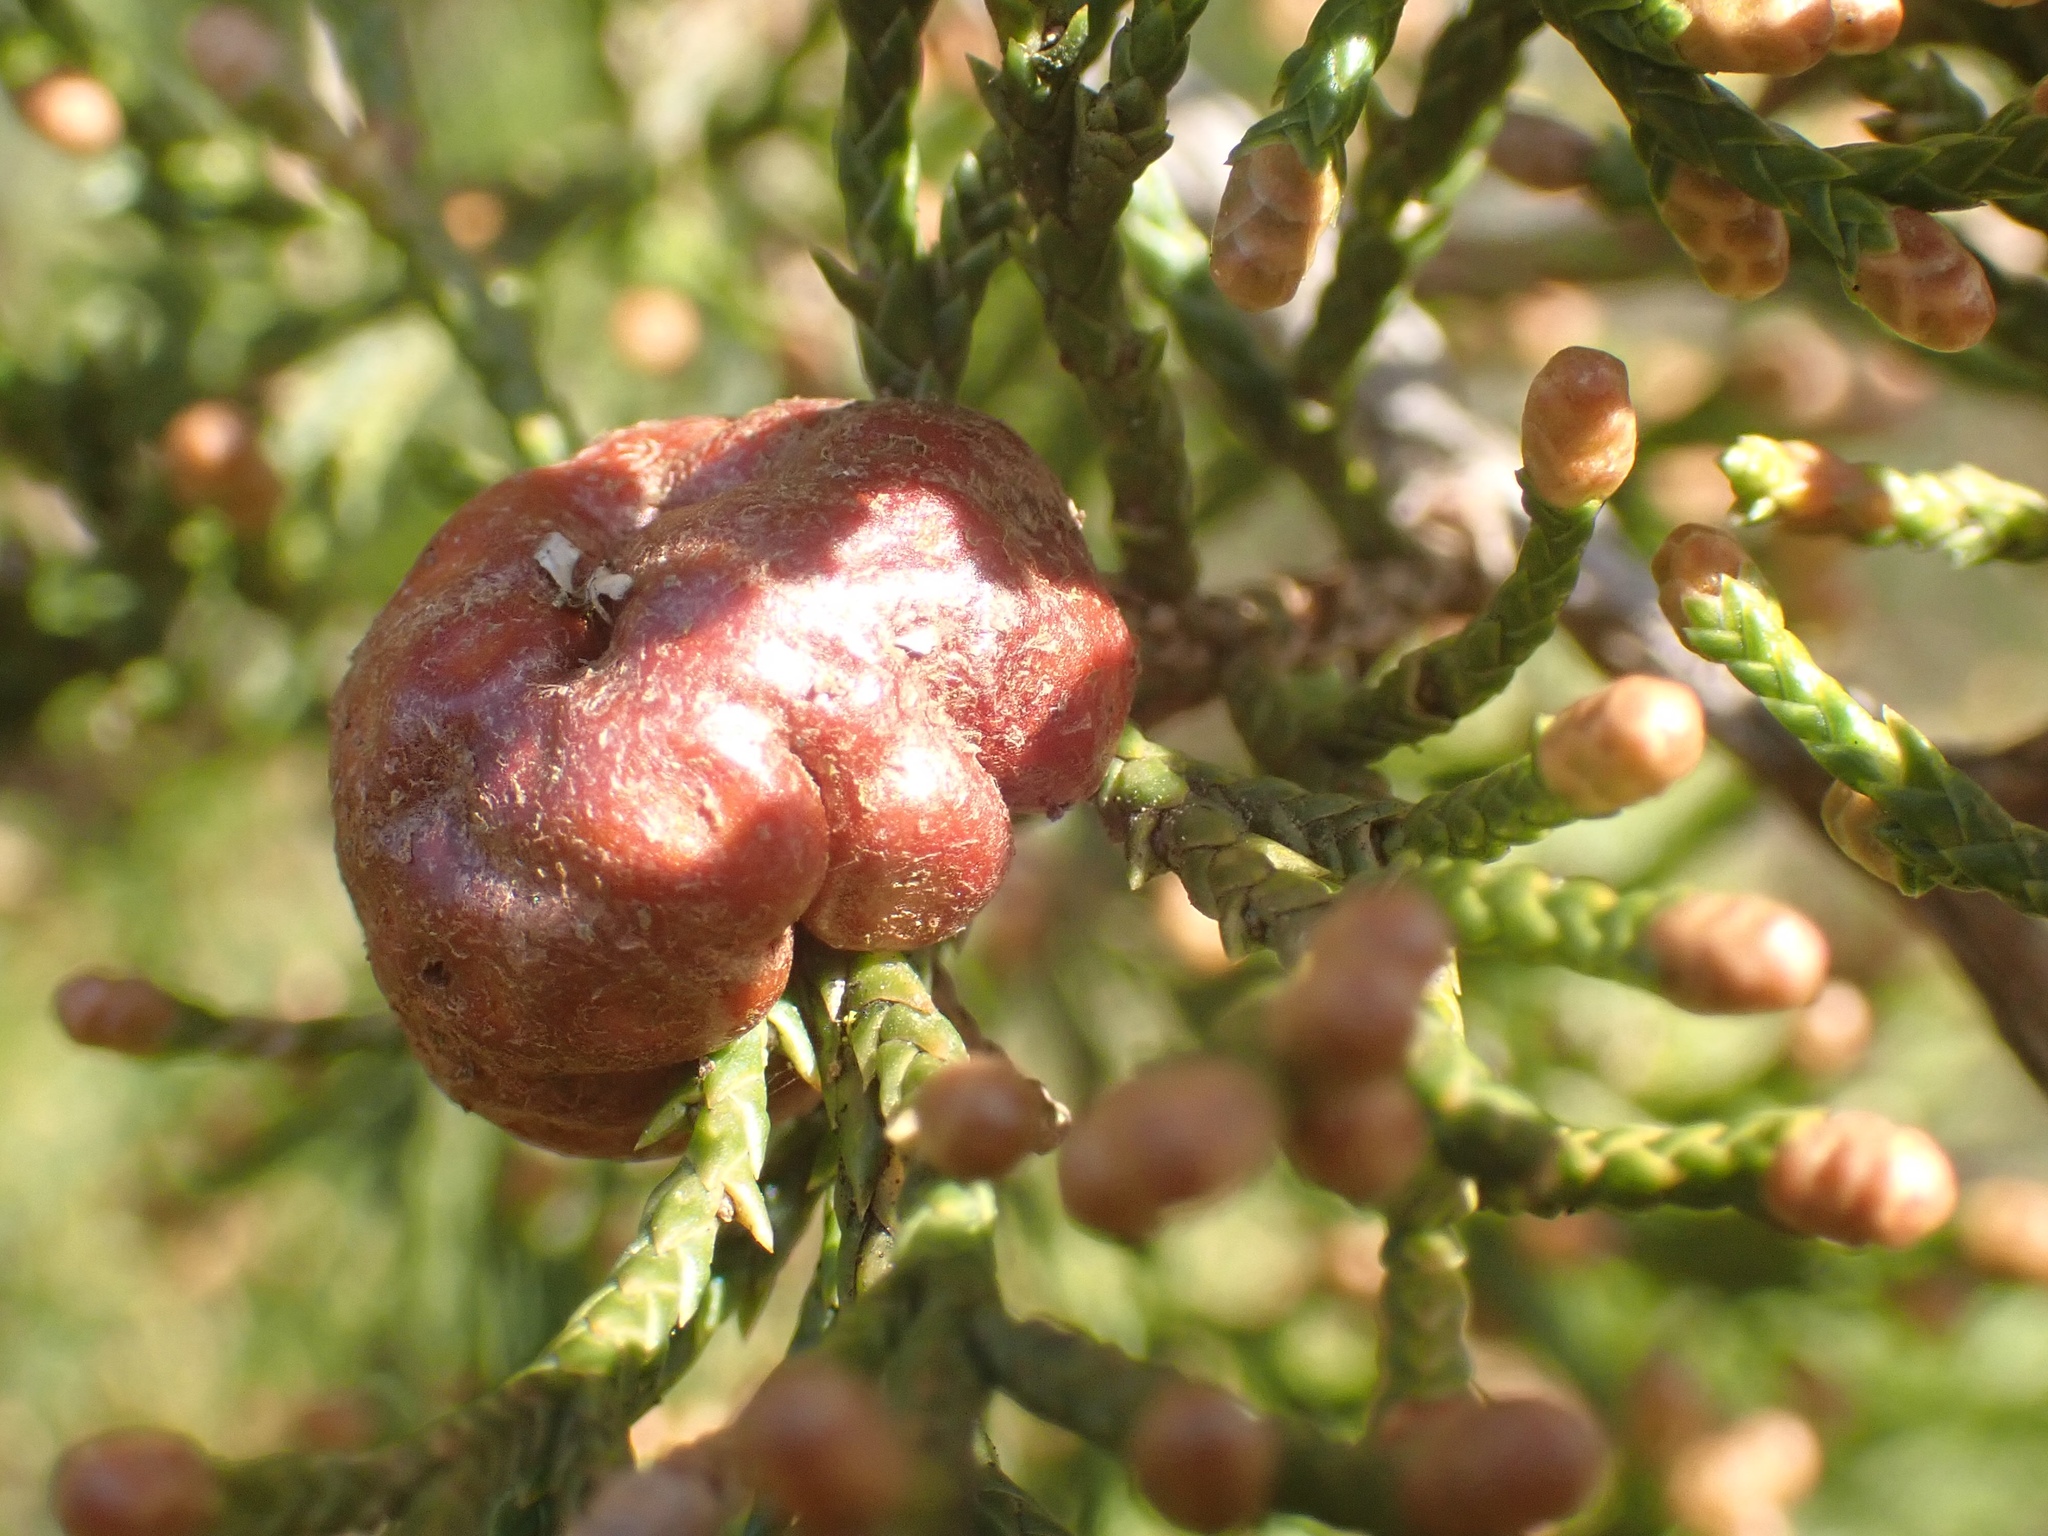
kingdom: Fungi
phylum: Basidiomycota
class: Pucciniomycetes
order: Pucciniales
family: Gymnosporangiaceae
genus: Gymnosporangium
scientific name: Gymnosporangium juniperi-virginianae
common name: Juniper-apple rust
